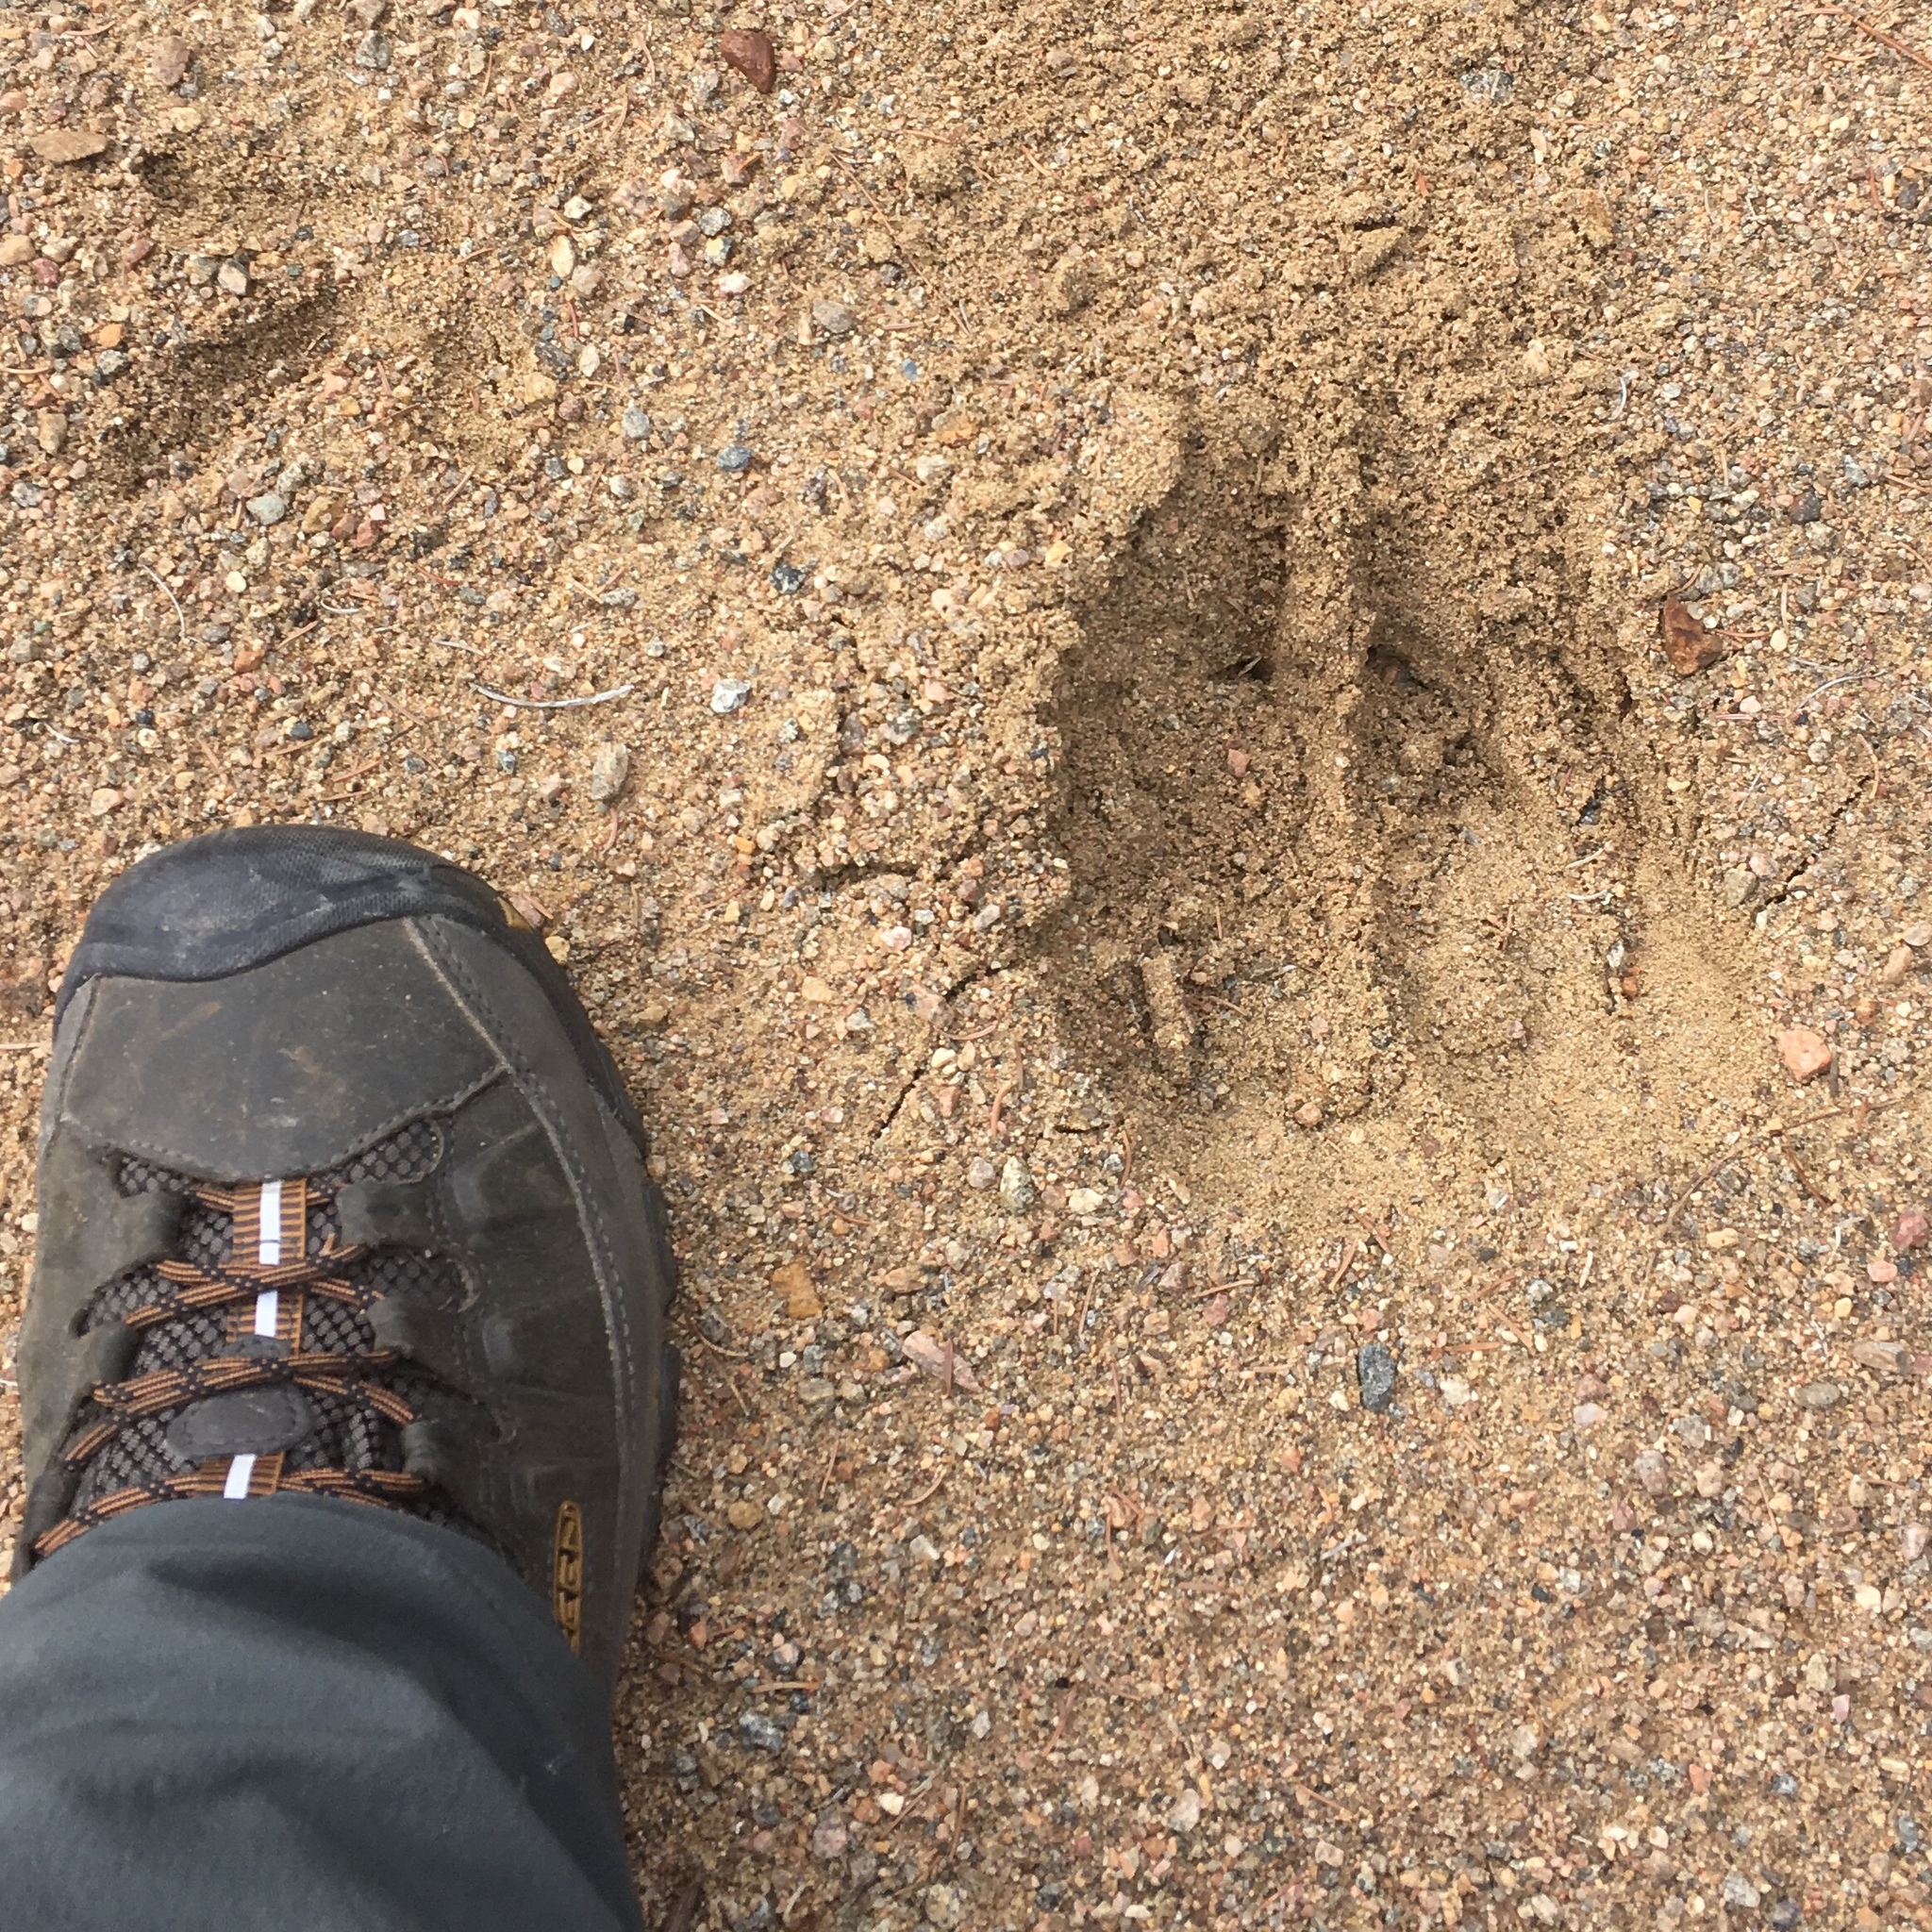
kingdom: Animalia
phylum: Chordata
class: Mammalia
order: Artiodactyla
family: Cervidae
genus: Alces
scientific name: Alces alces
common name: Moose
